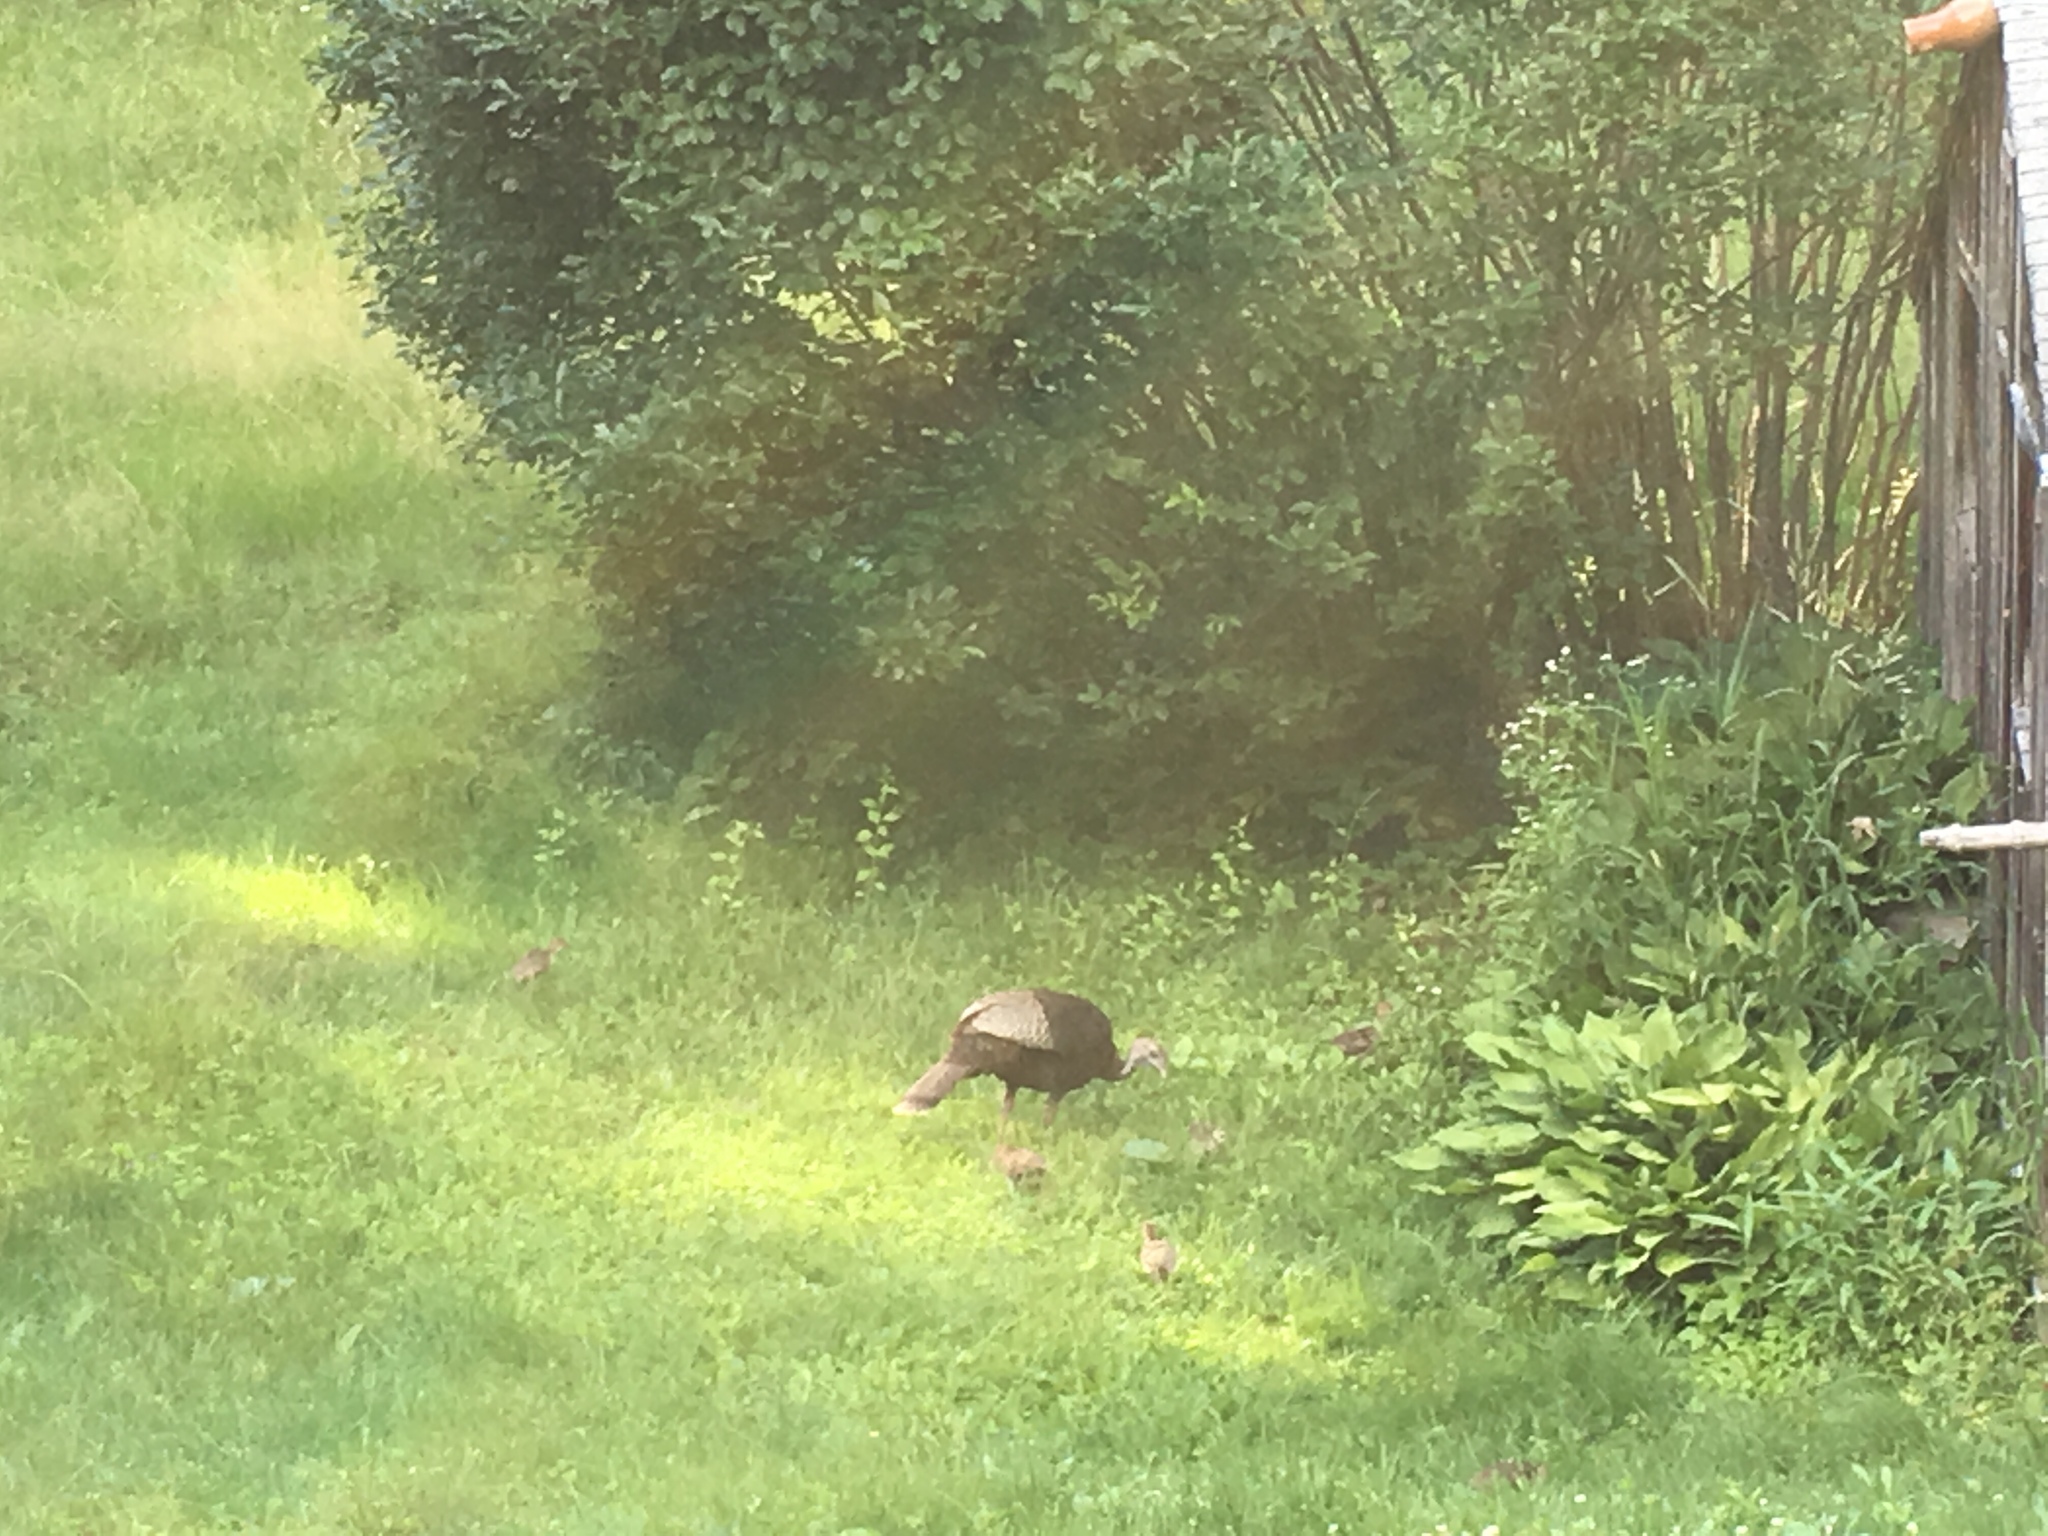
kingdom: Animalia
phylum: Chordata
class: Aves
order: Galliformes
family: Phasianidae
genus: Meleagris
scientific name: Meleagris gallopavo
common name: Wild turkey
